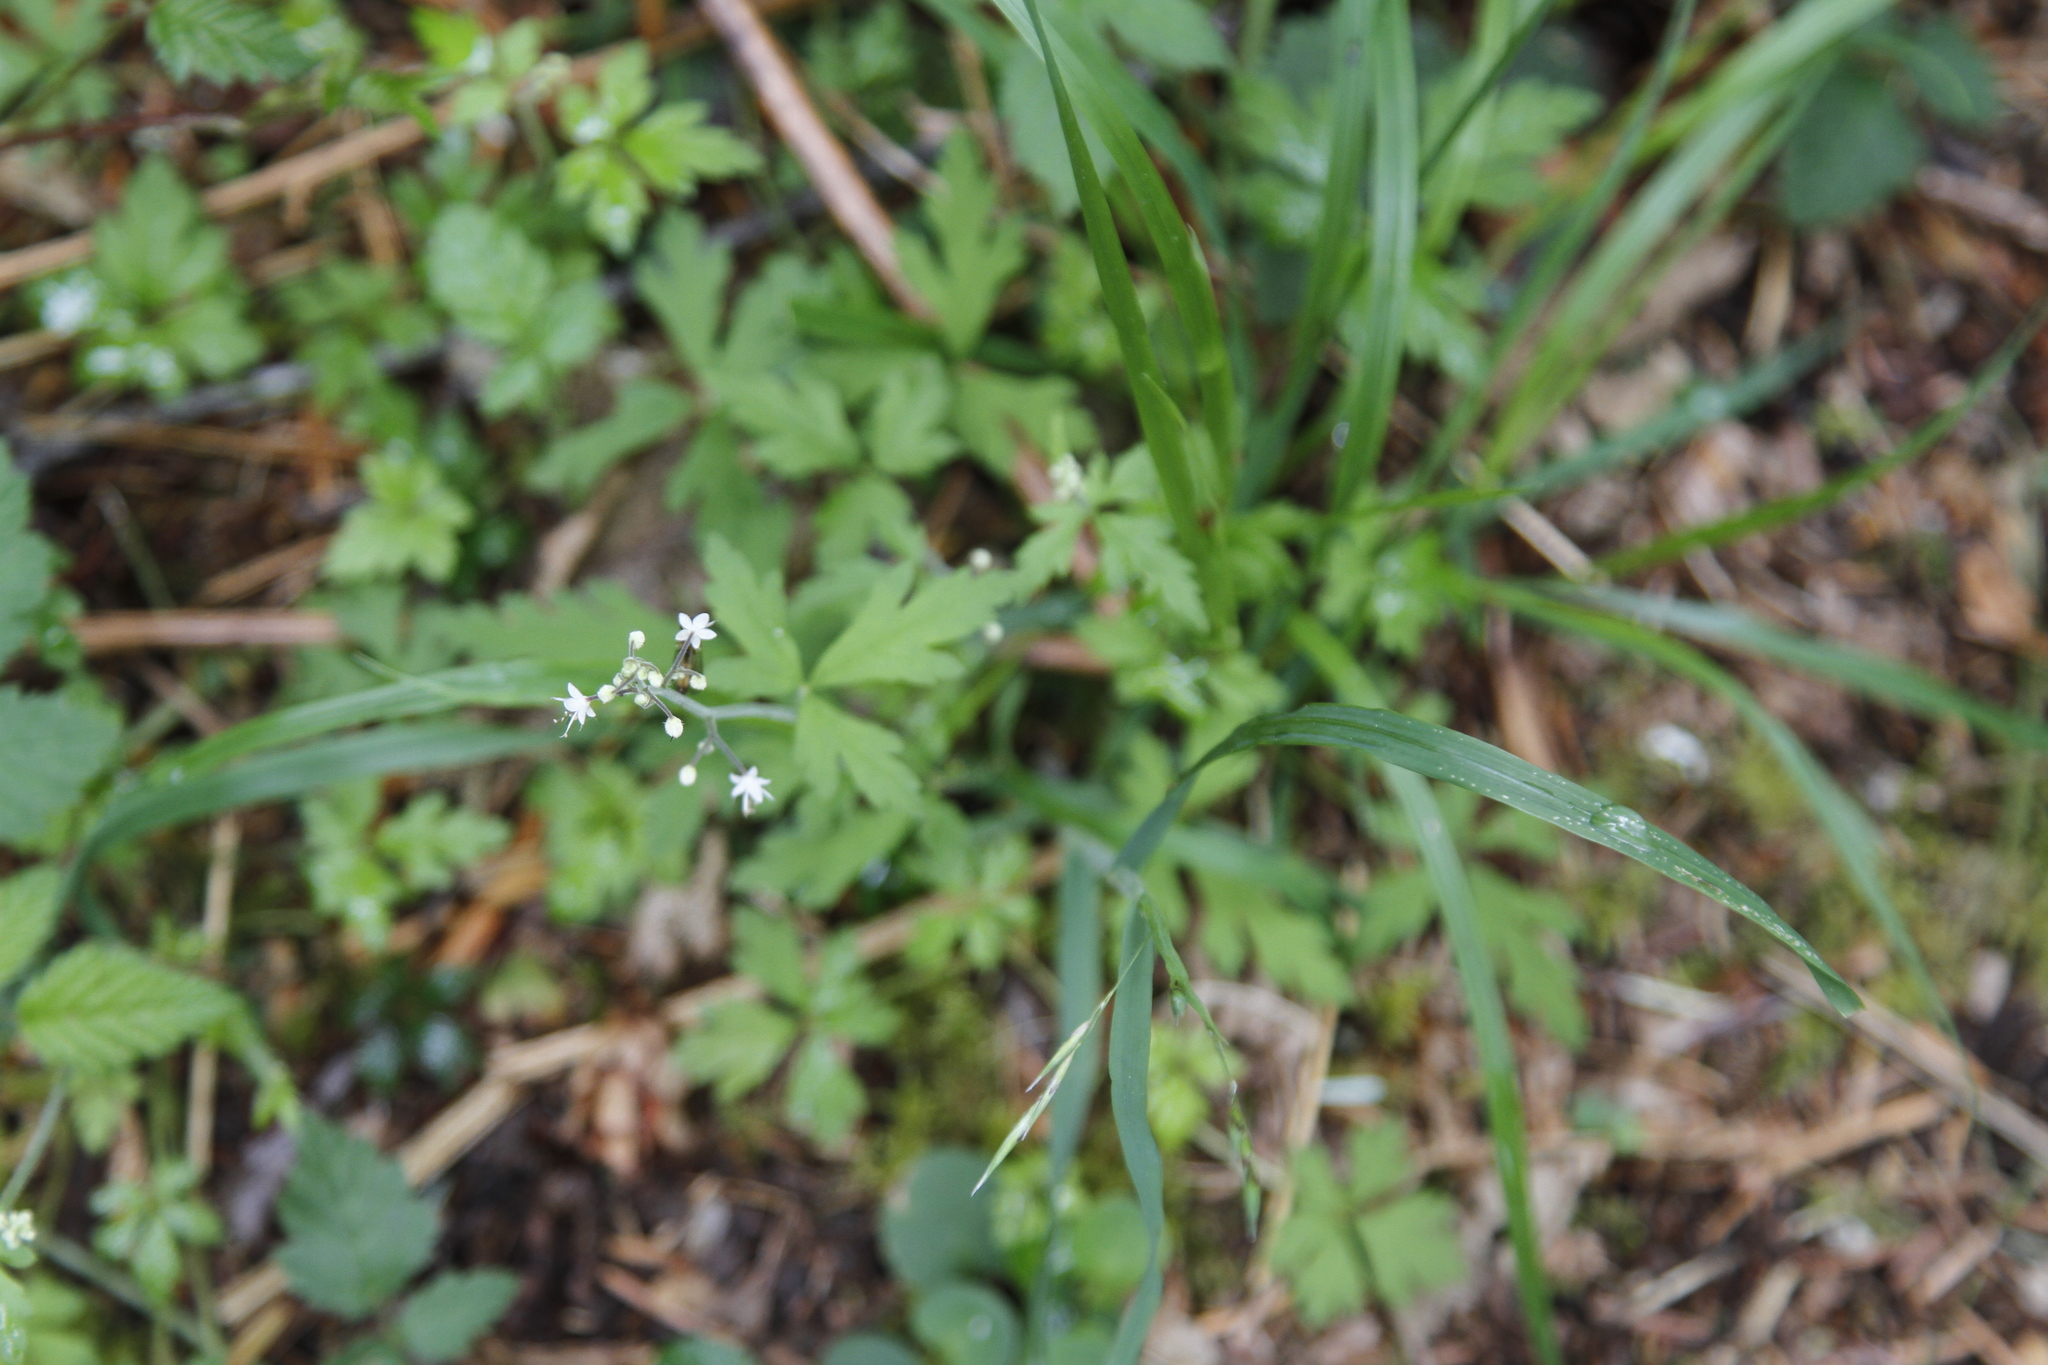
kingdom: Plantae
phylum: Tracheophyta
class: Magnoliopsida
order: Saxifragales
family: Saxifragaceae
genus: Tiarella
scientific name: Tiarella trifoliata
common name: Sugar-scoop
